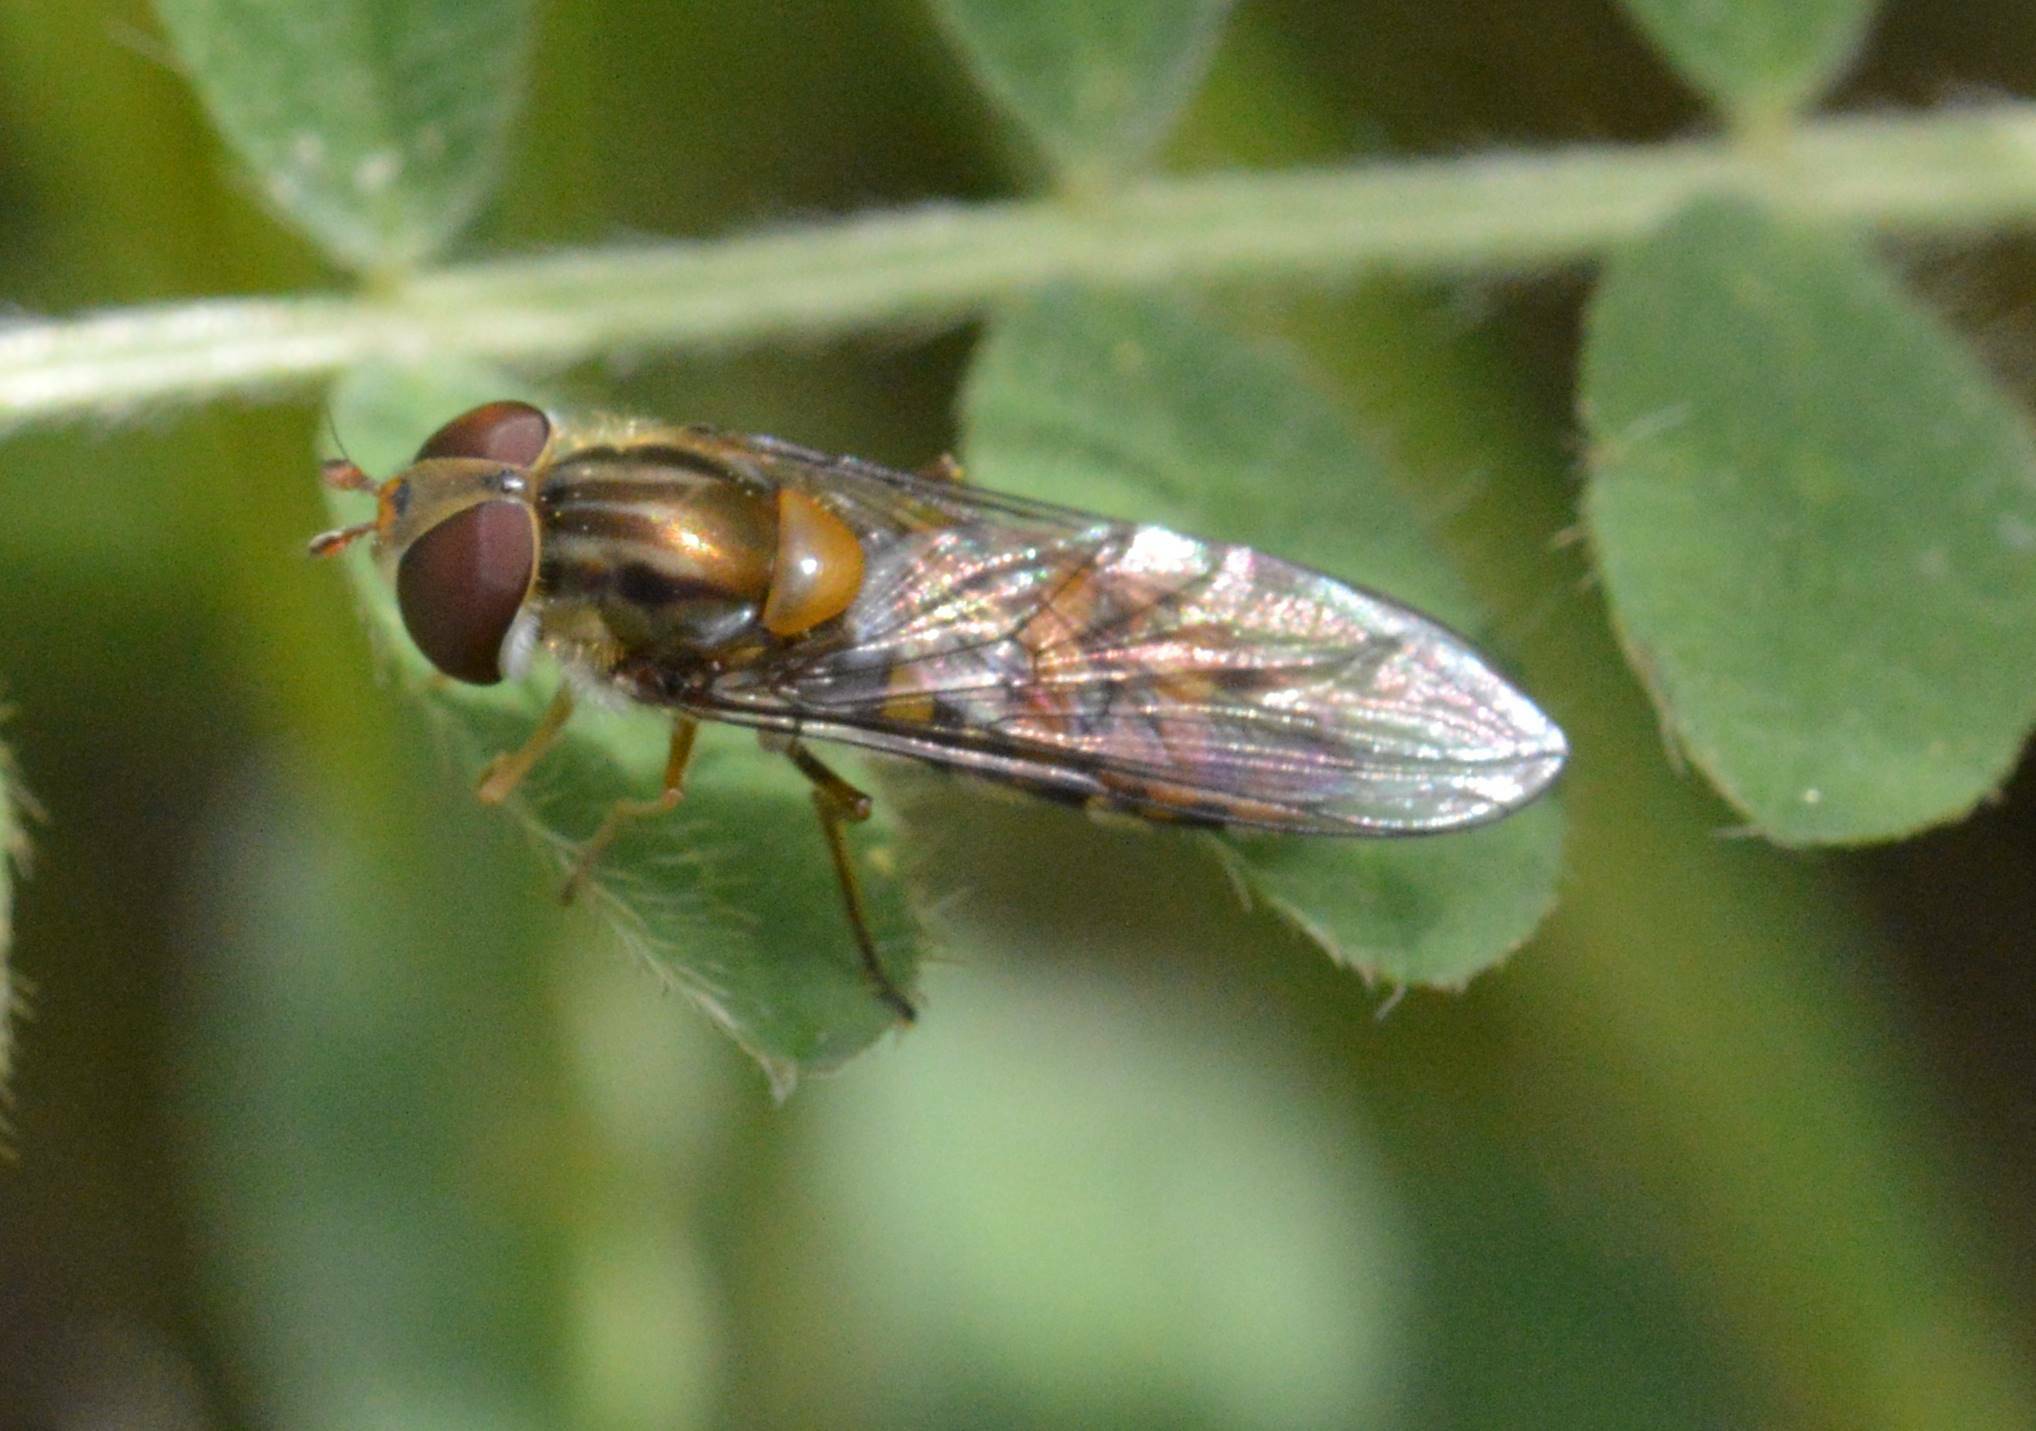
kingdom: Animalia
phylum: Arthropoda
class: Insecta
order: Diptera
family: Syrphidae
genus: Episyrphus
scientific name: Episyrphus balteatus
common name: Marmalade hoverfly
